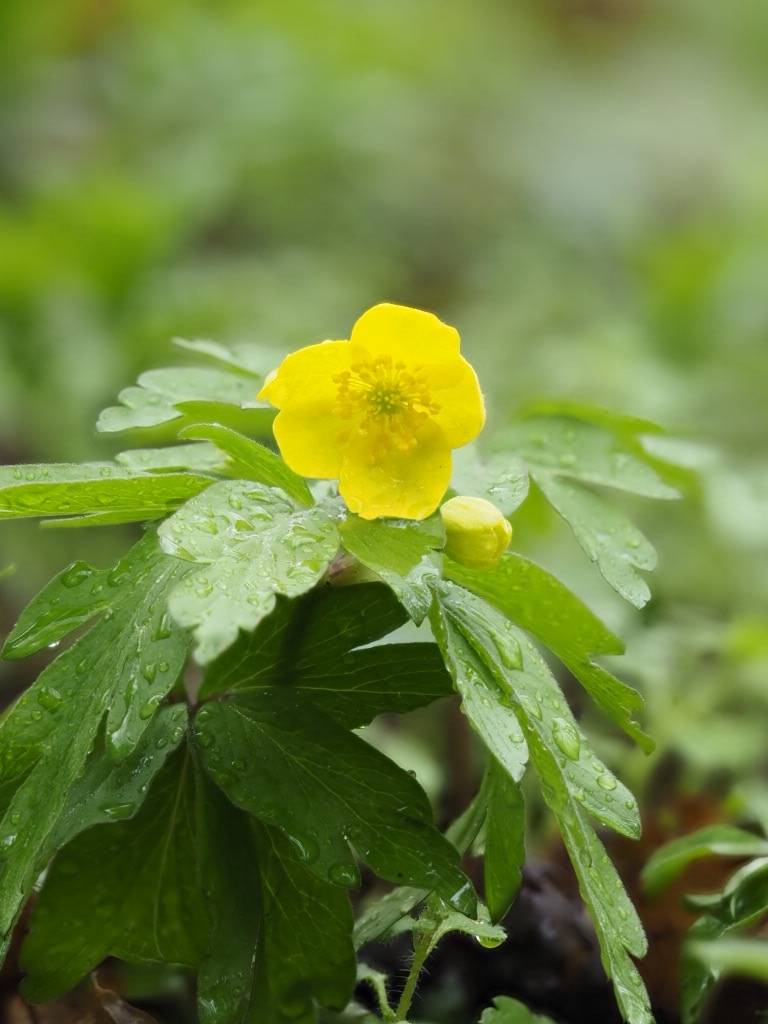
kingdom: Plantae
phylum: Tracheophyta
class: Magnoliopsida
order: Ranunculales
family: Ranunculaceae
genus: Anemone
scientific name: Anemone ranunculoides
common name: Yellow anemone
